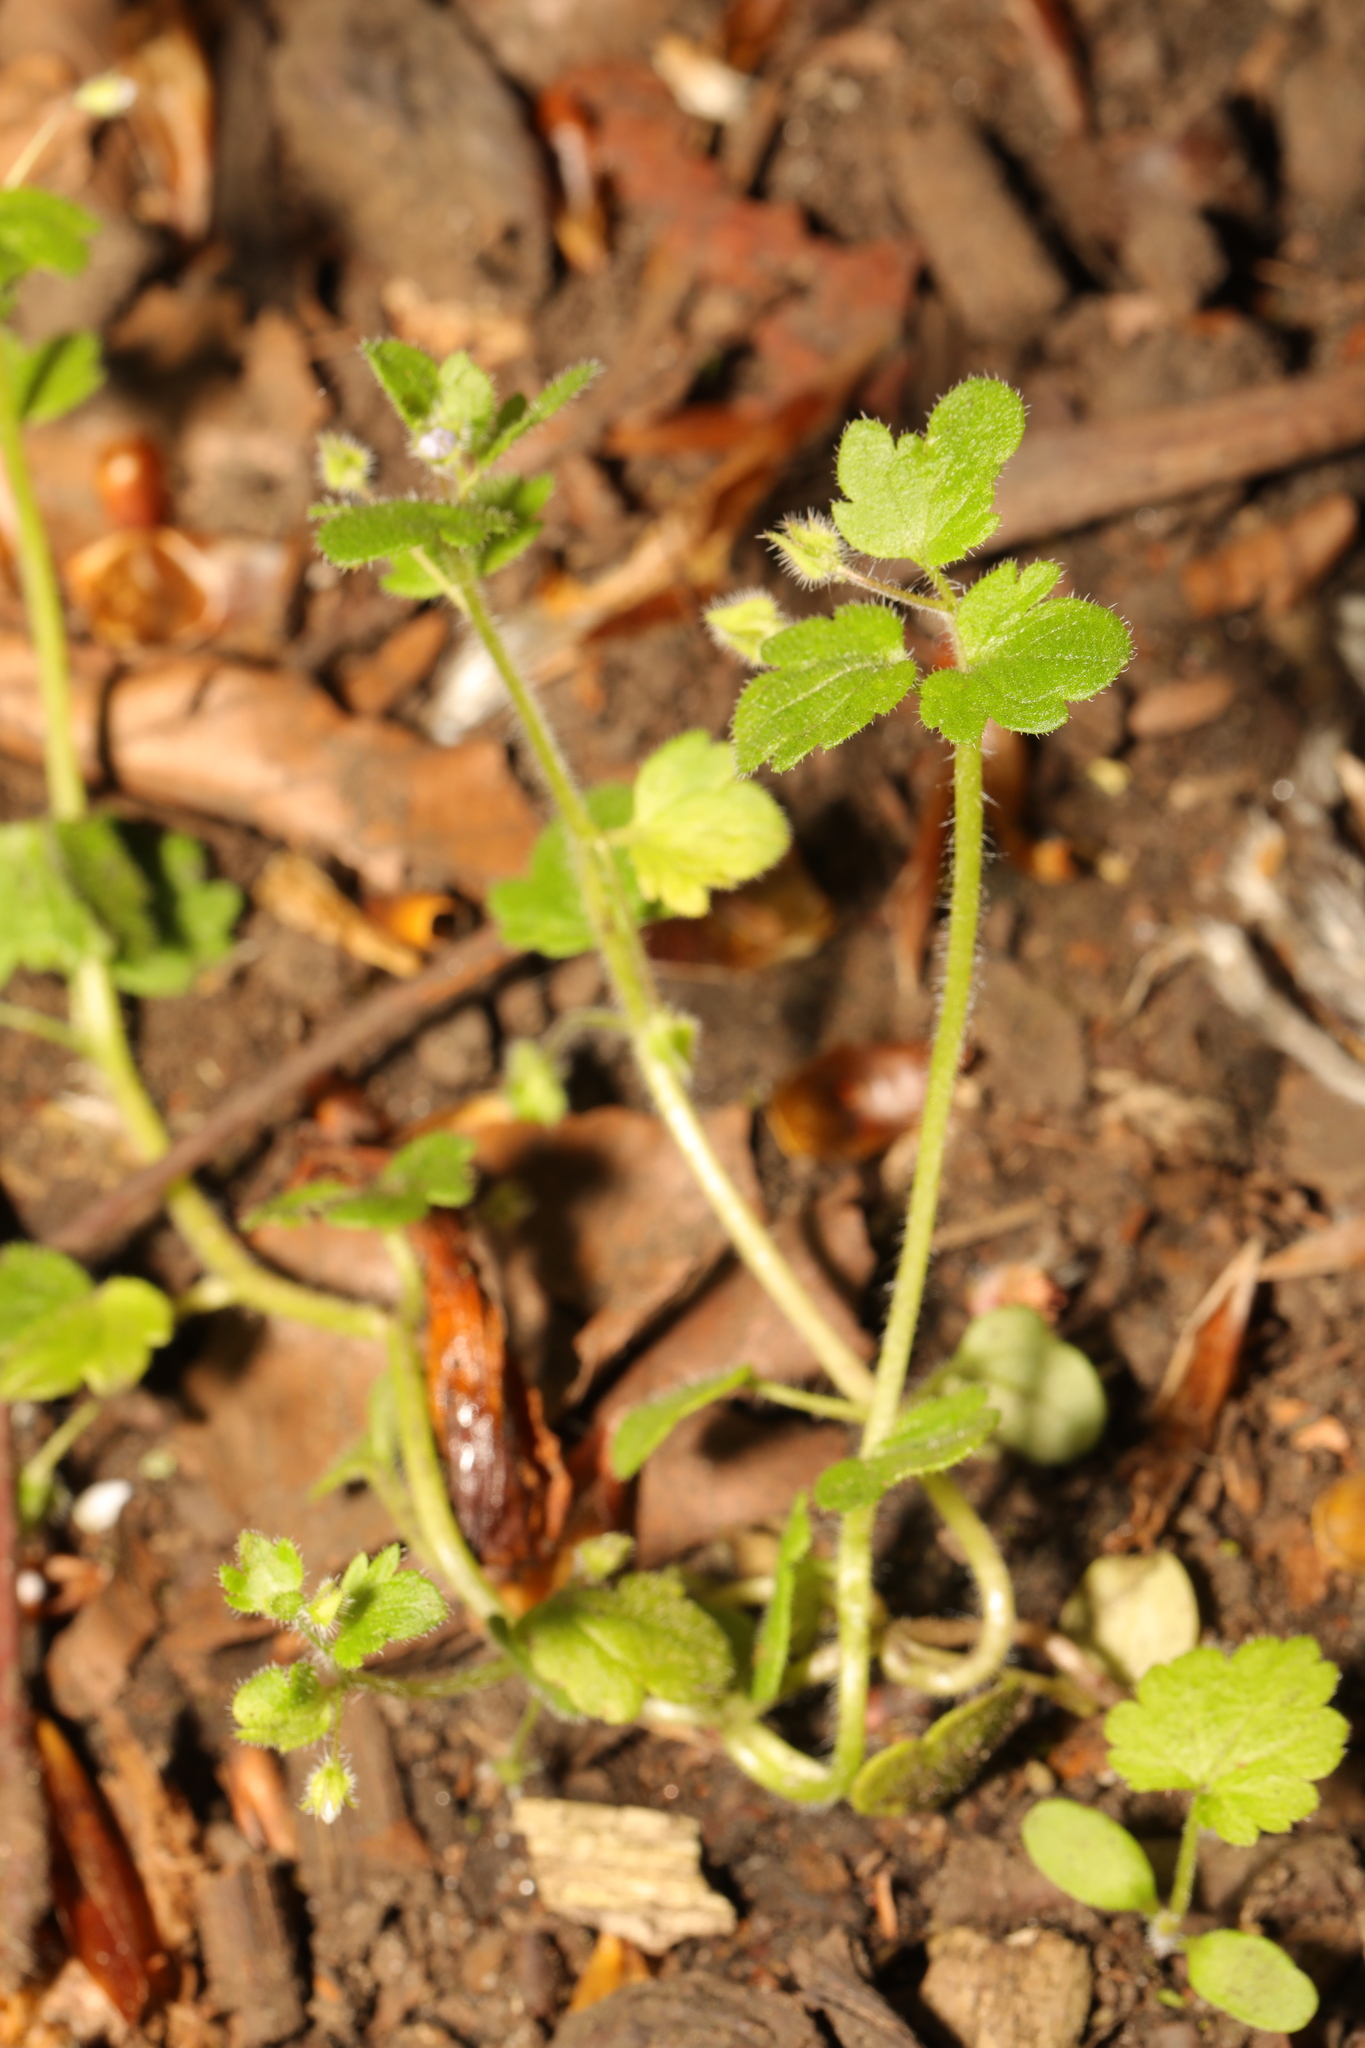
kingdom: Plantae
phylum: Tracheophyta
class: Magnoliopsida
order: Lamiales
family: Plantaginaceae
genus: Veronica
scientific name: Veronica sublobata
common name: False ivy-leaved speedwell
